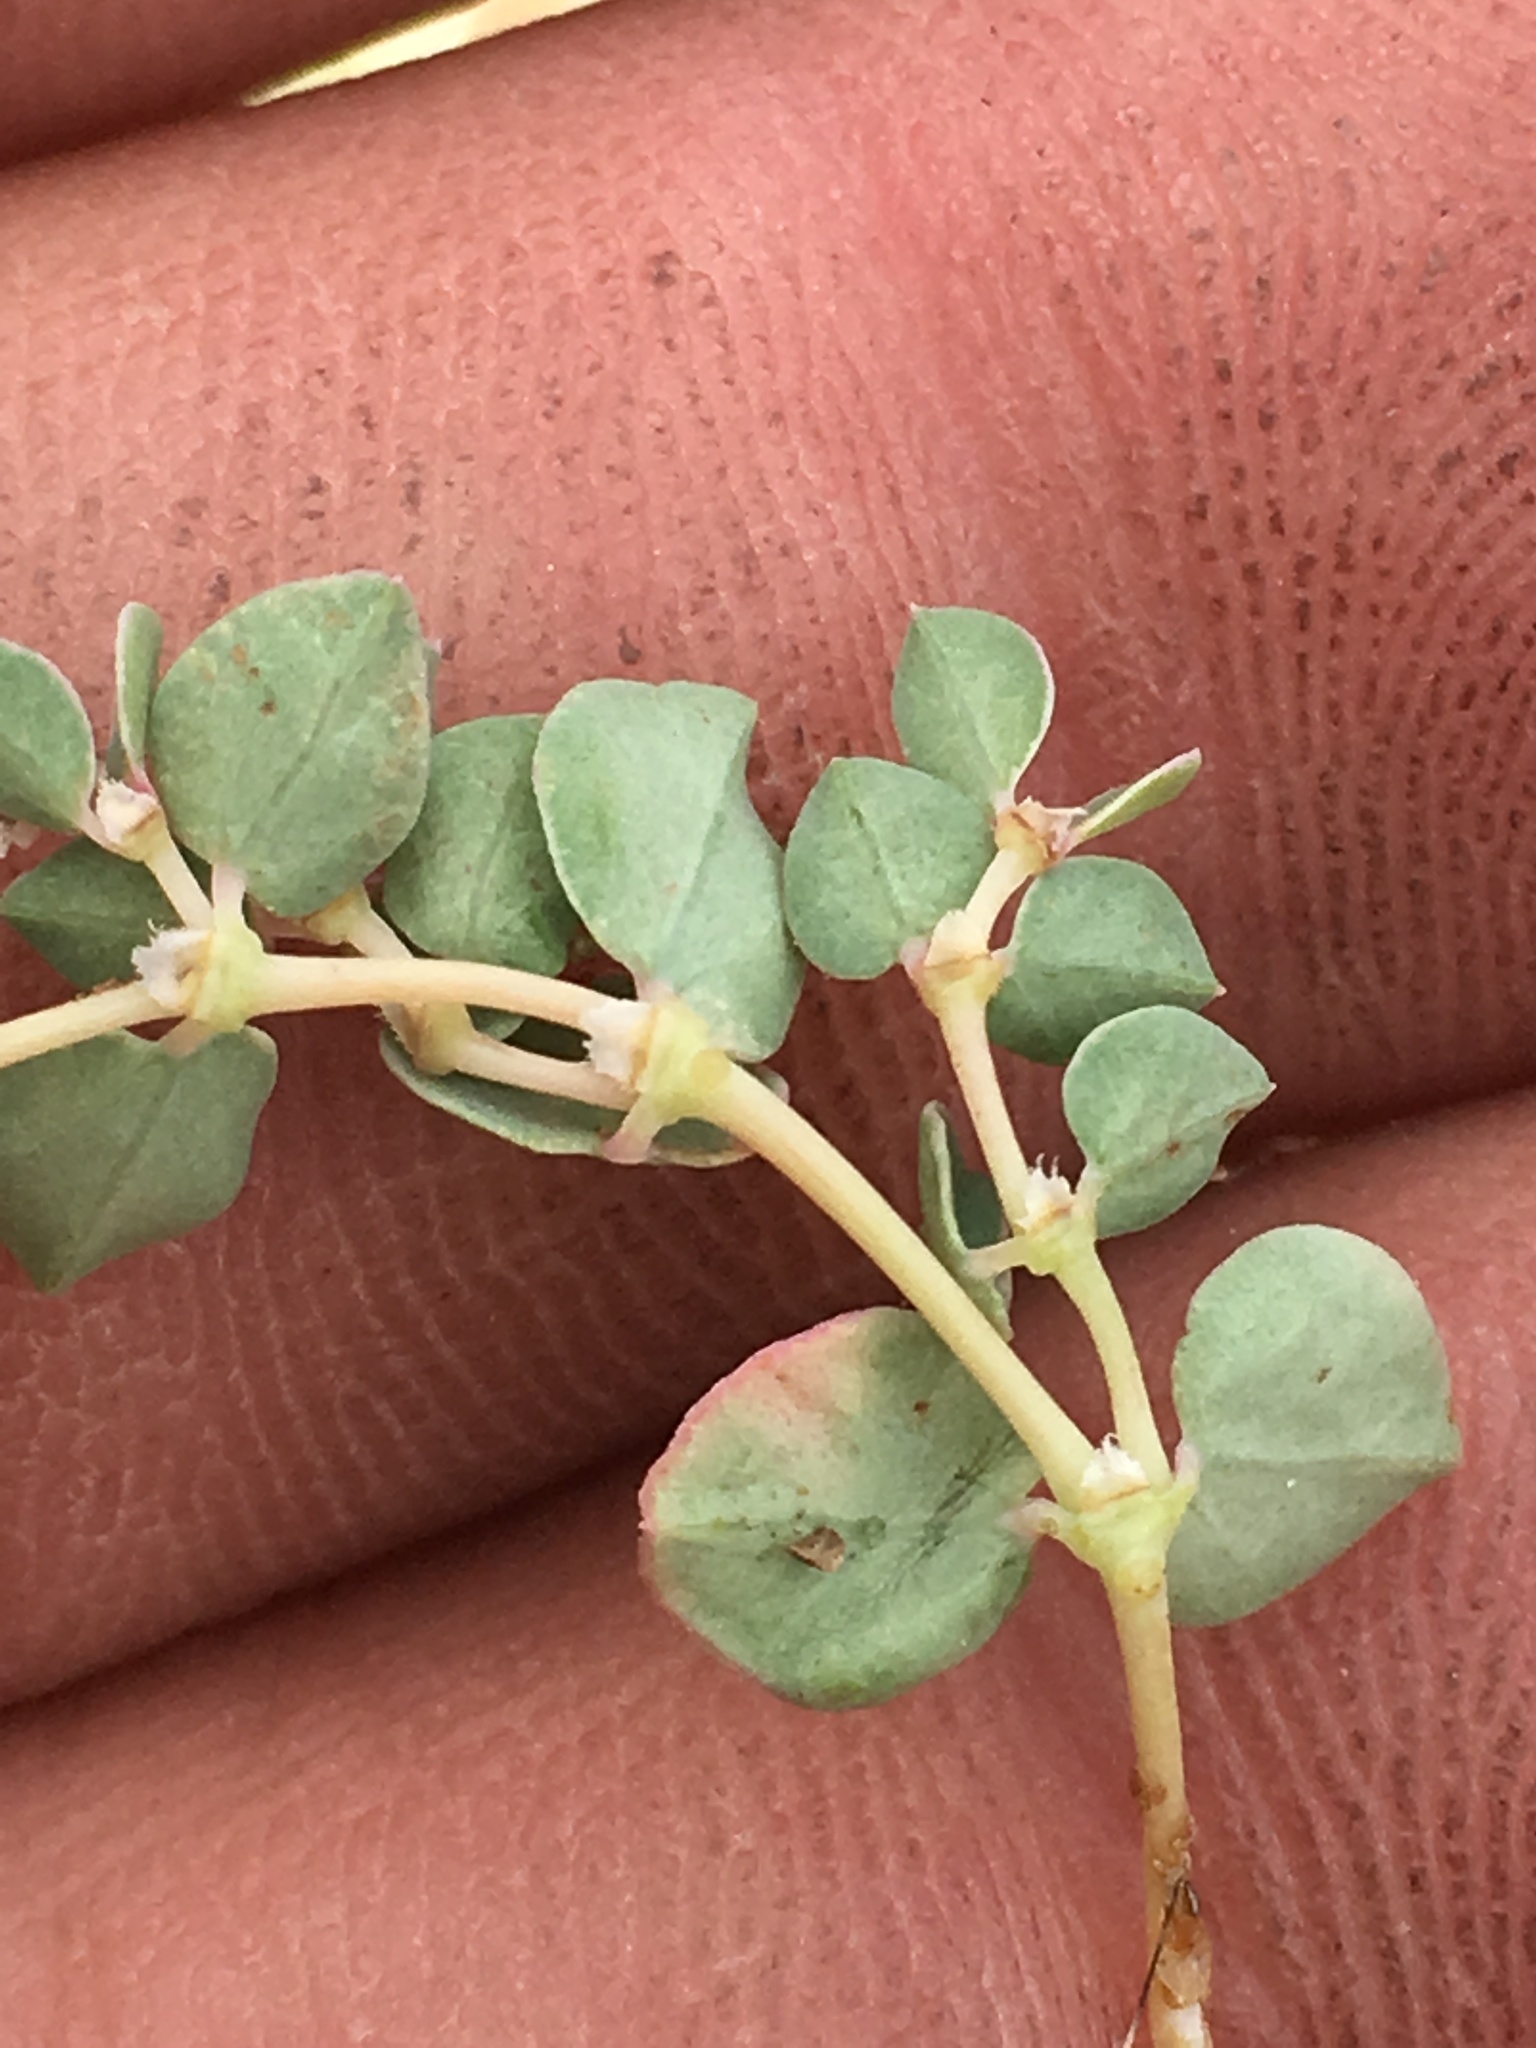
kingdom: Plantae
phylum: Tracheophyta
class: Magnoliopsida
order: Malpighiales
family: Euphorbiaceae
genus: Euphorbia
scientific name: Euphorbia albomarginata
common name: Whitemargin sandmat
